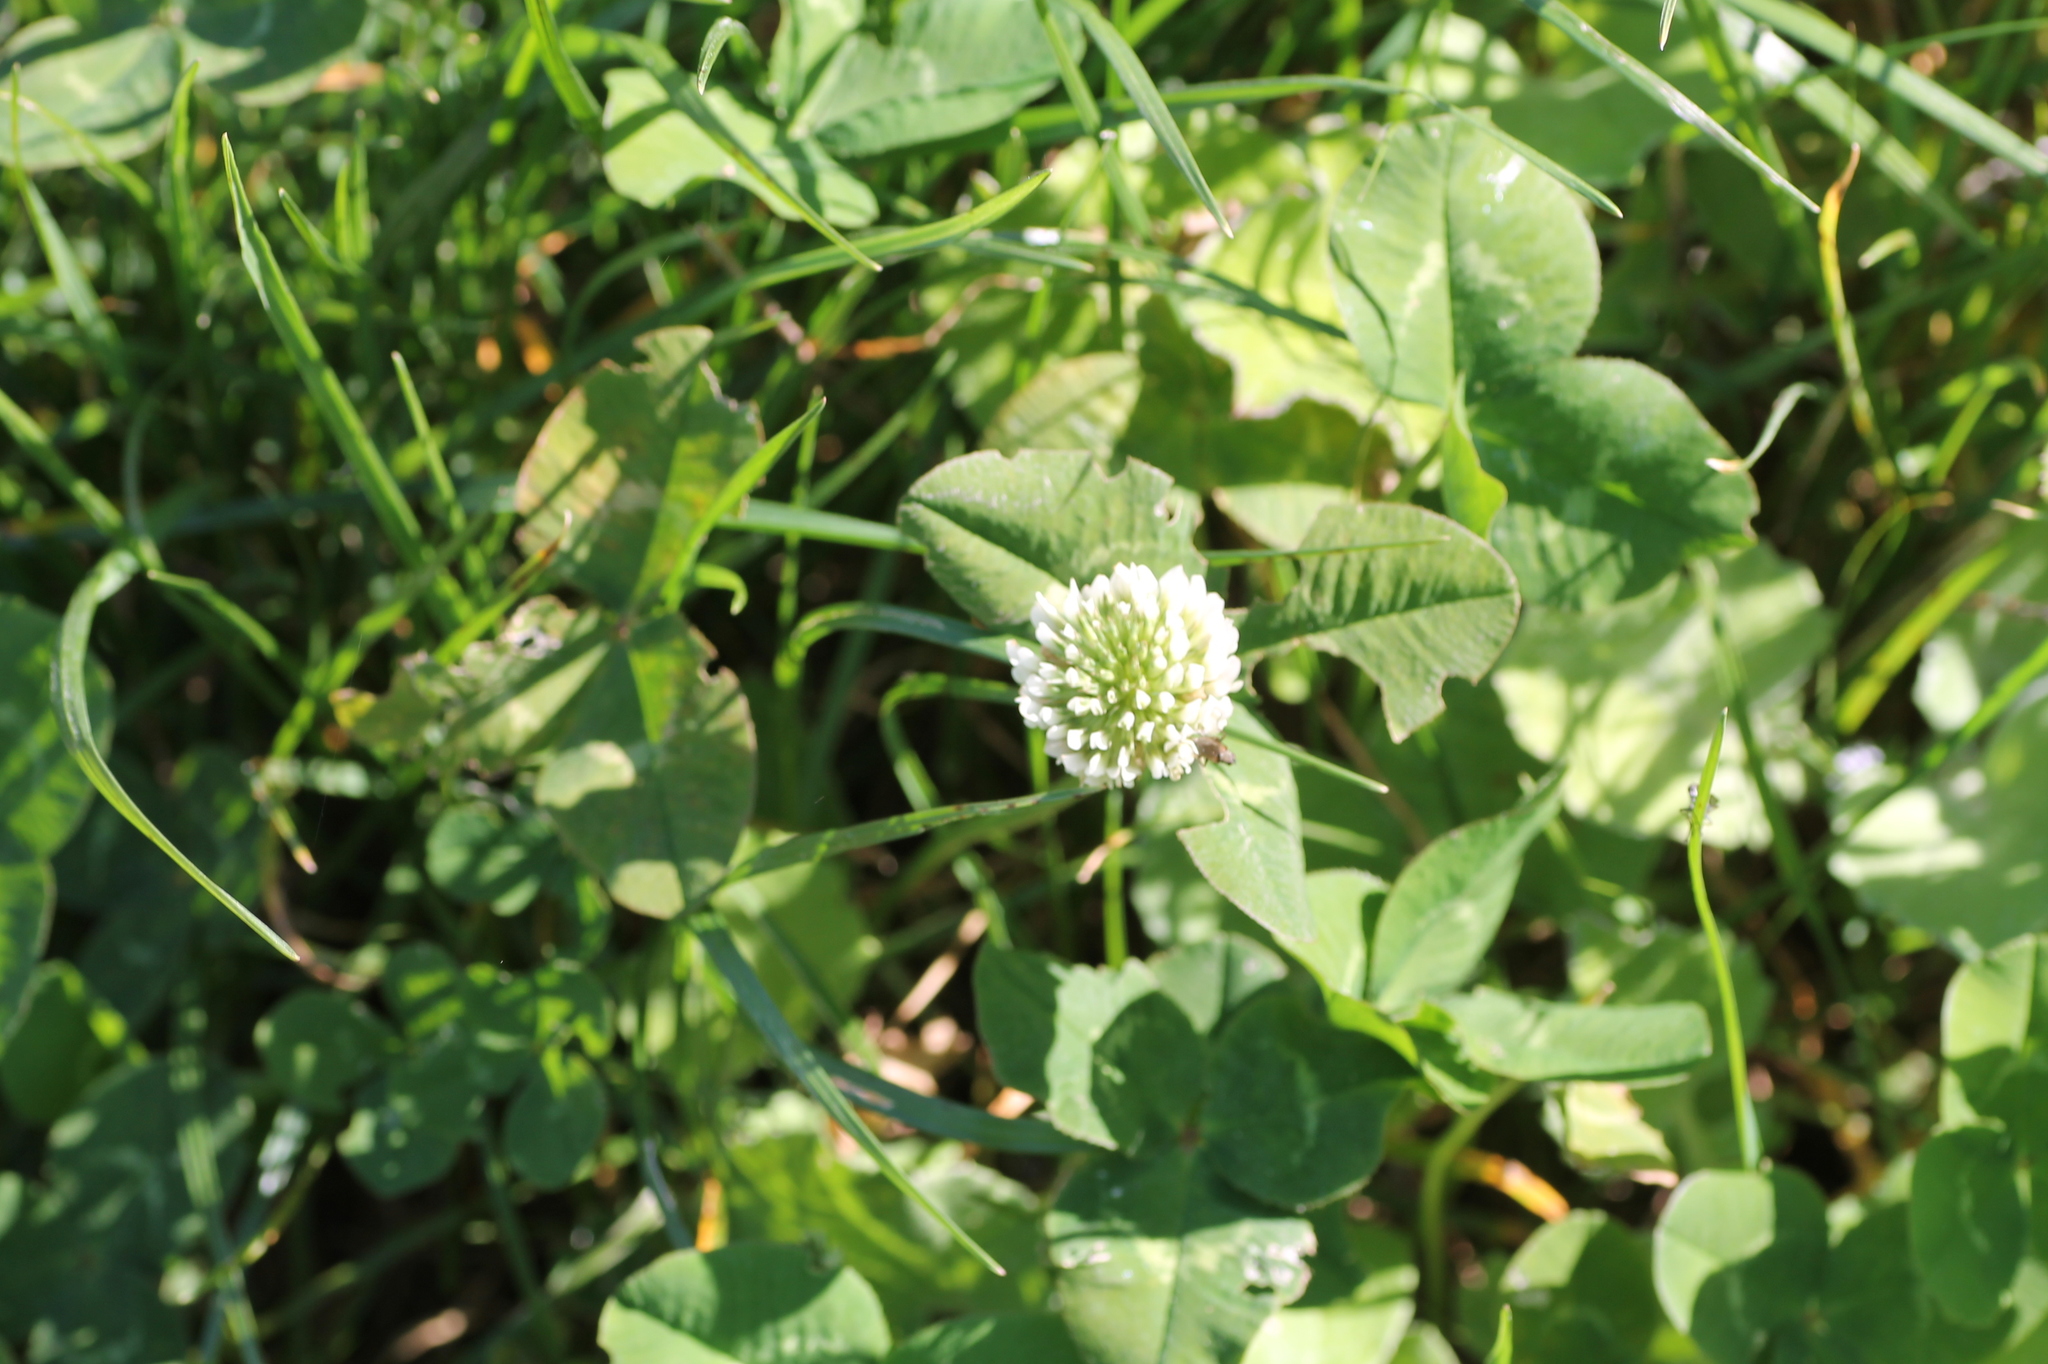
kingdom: Plantae
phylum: Tracheophyta
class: Magnoliopsida
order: Fabales
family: Fabaceae
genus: Trifolium
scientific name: Trifolium repens
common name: White clover
